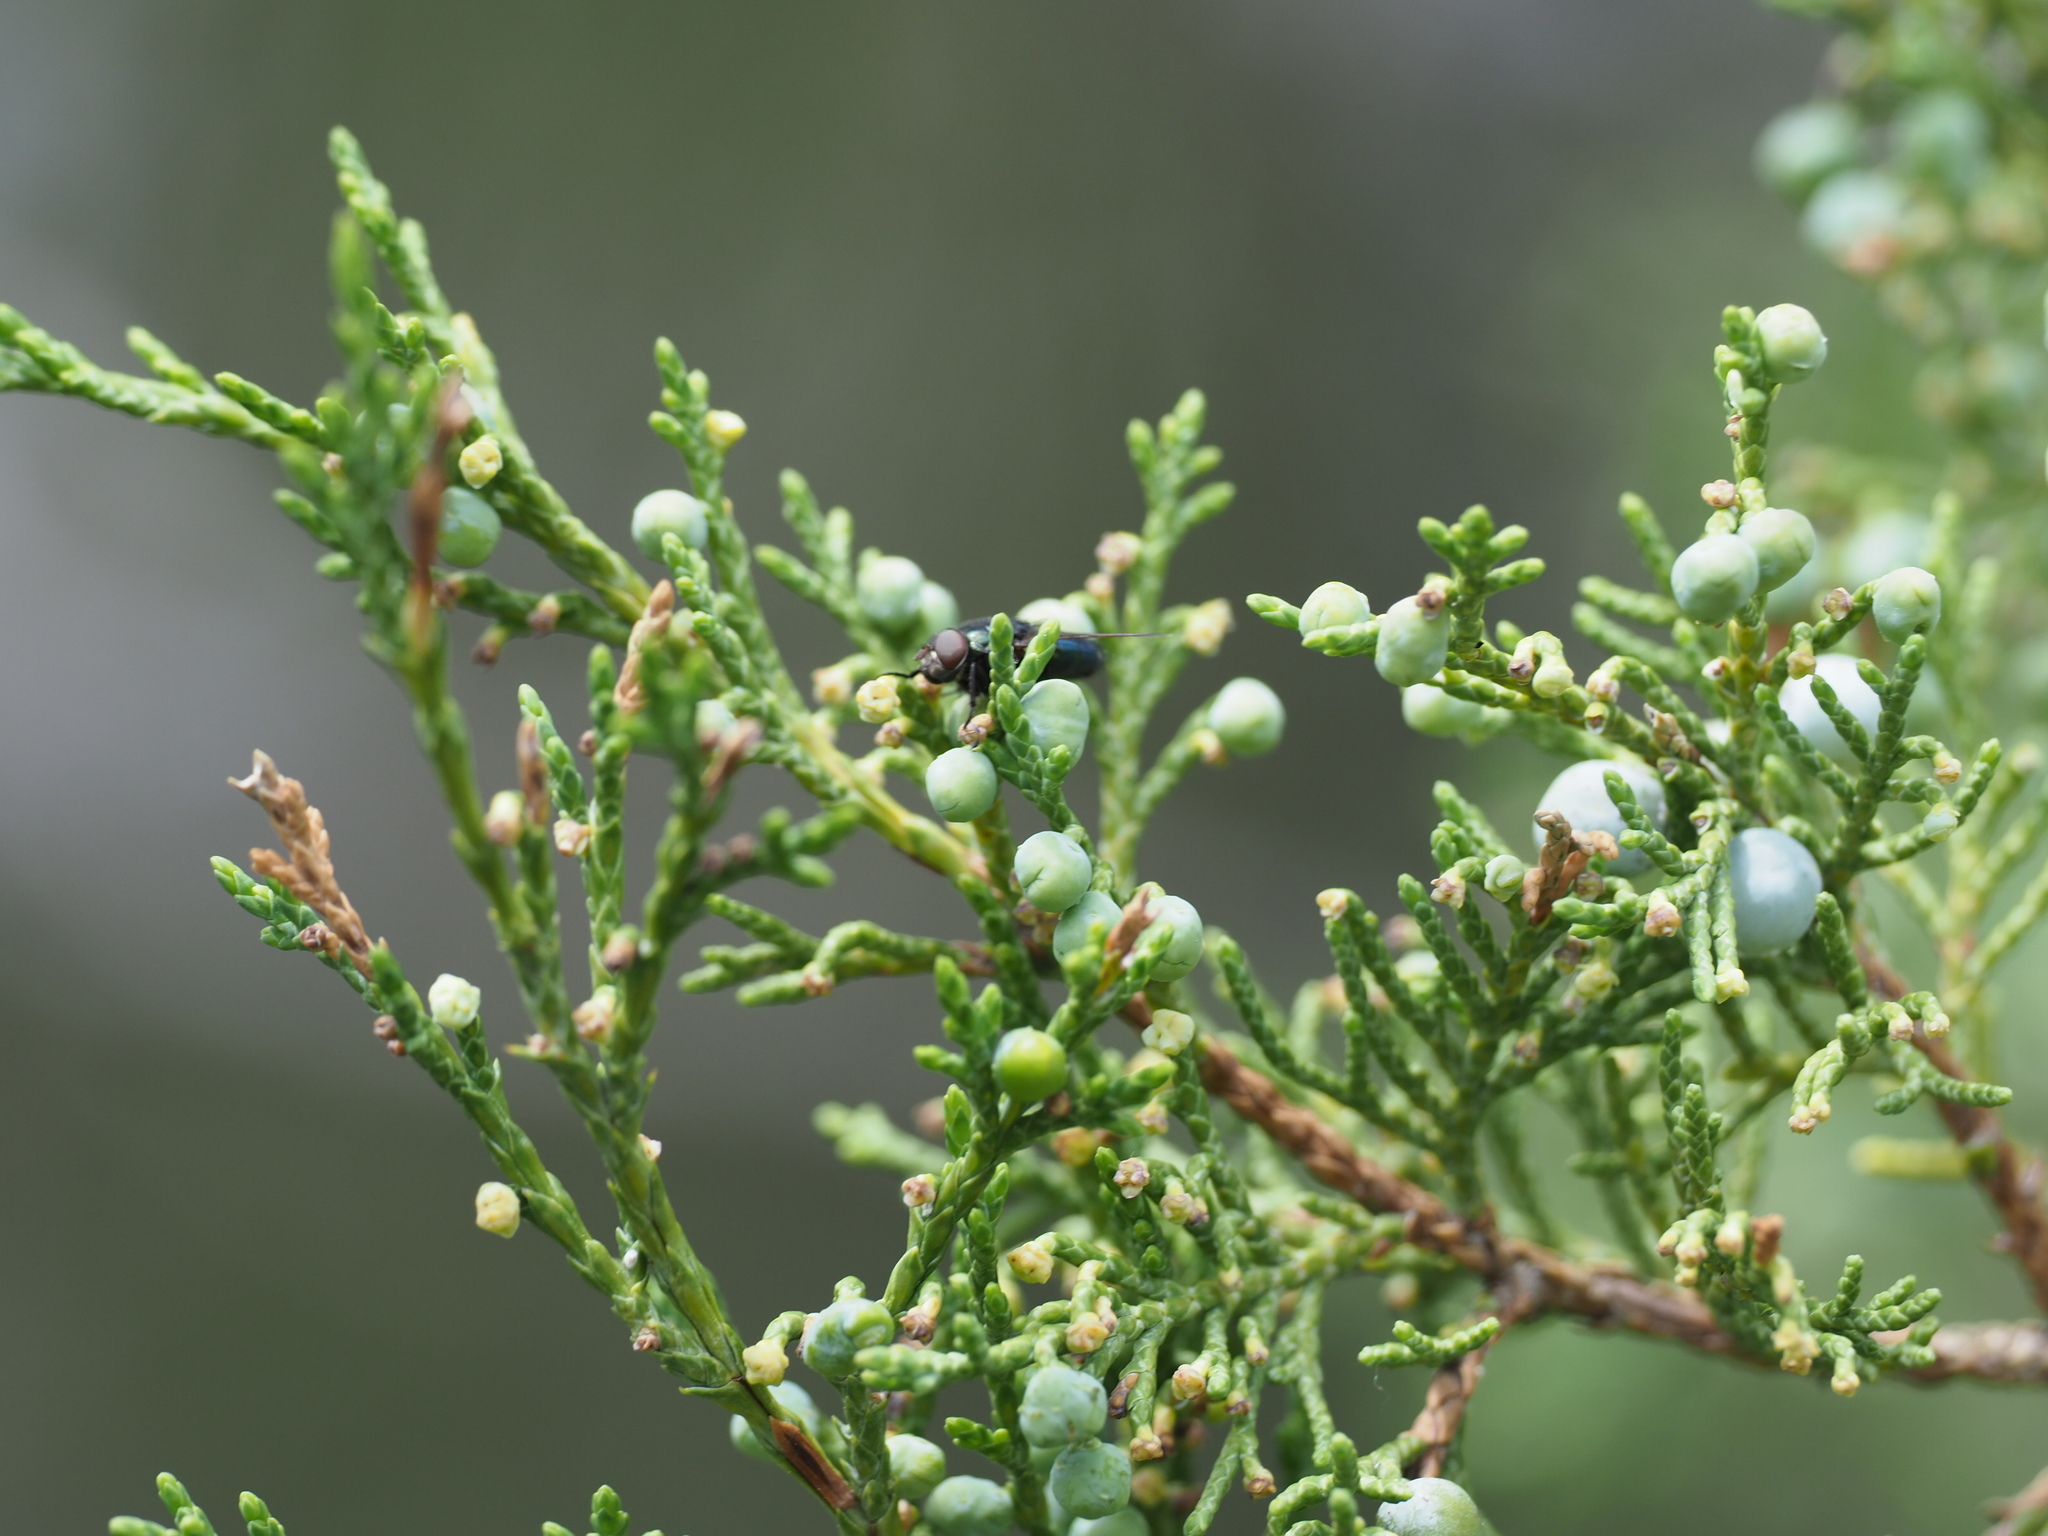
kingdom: Plantae
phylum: Tracheophyta
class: Pinopsida
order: Pinales
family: Cupressaceae
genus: Juniperus
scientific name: Juniperus scopulorum
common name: Rocky mountain juniper
